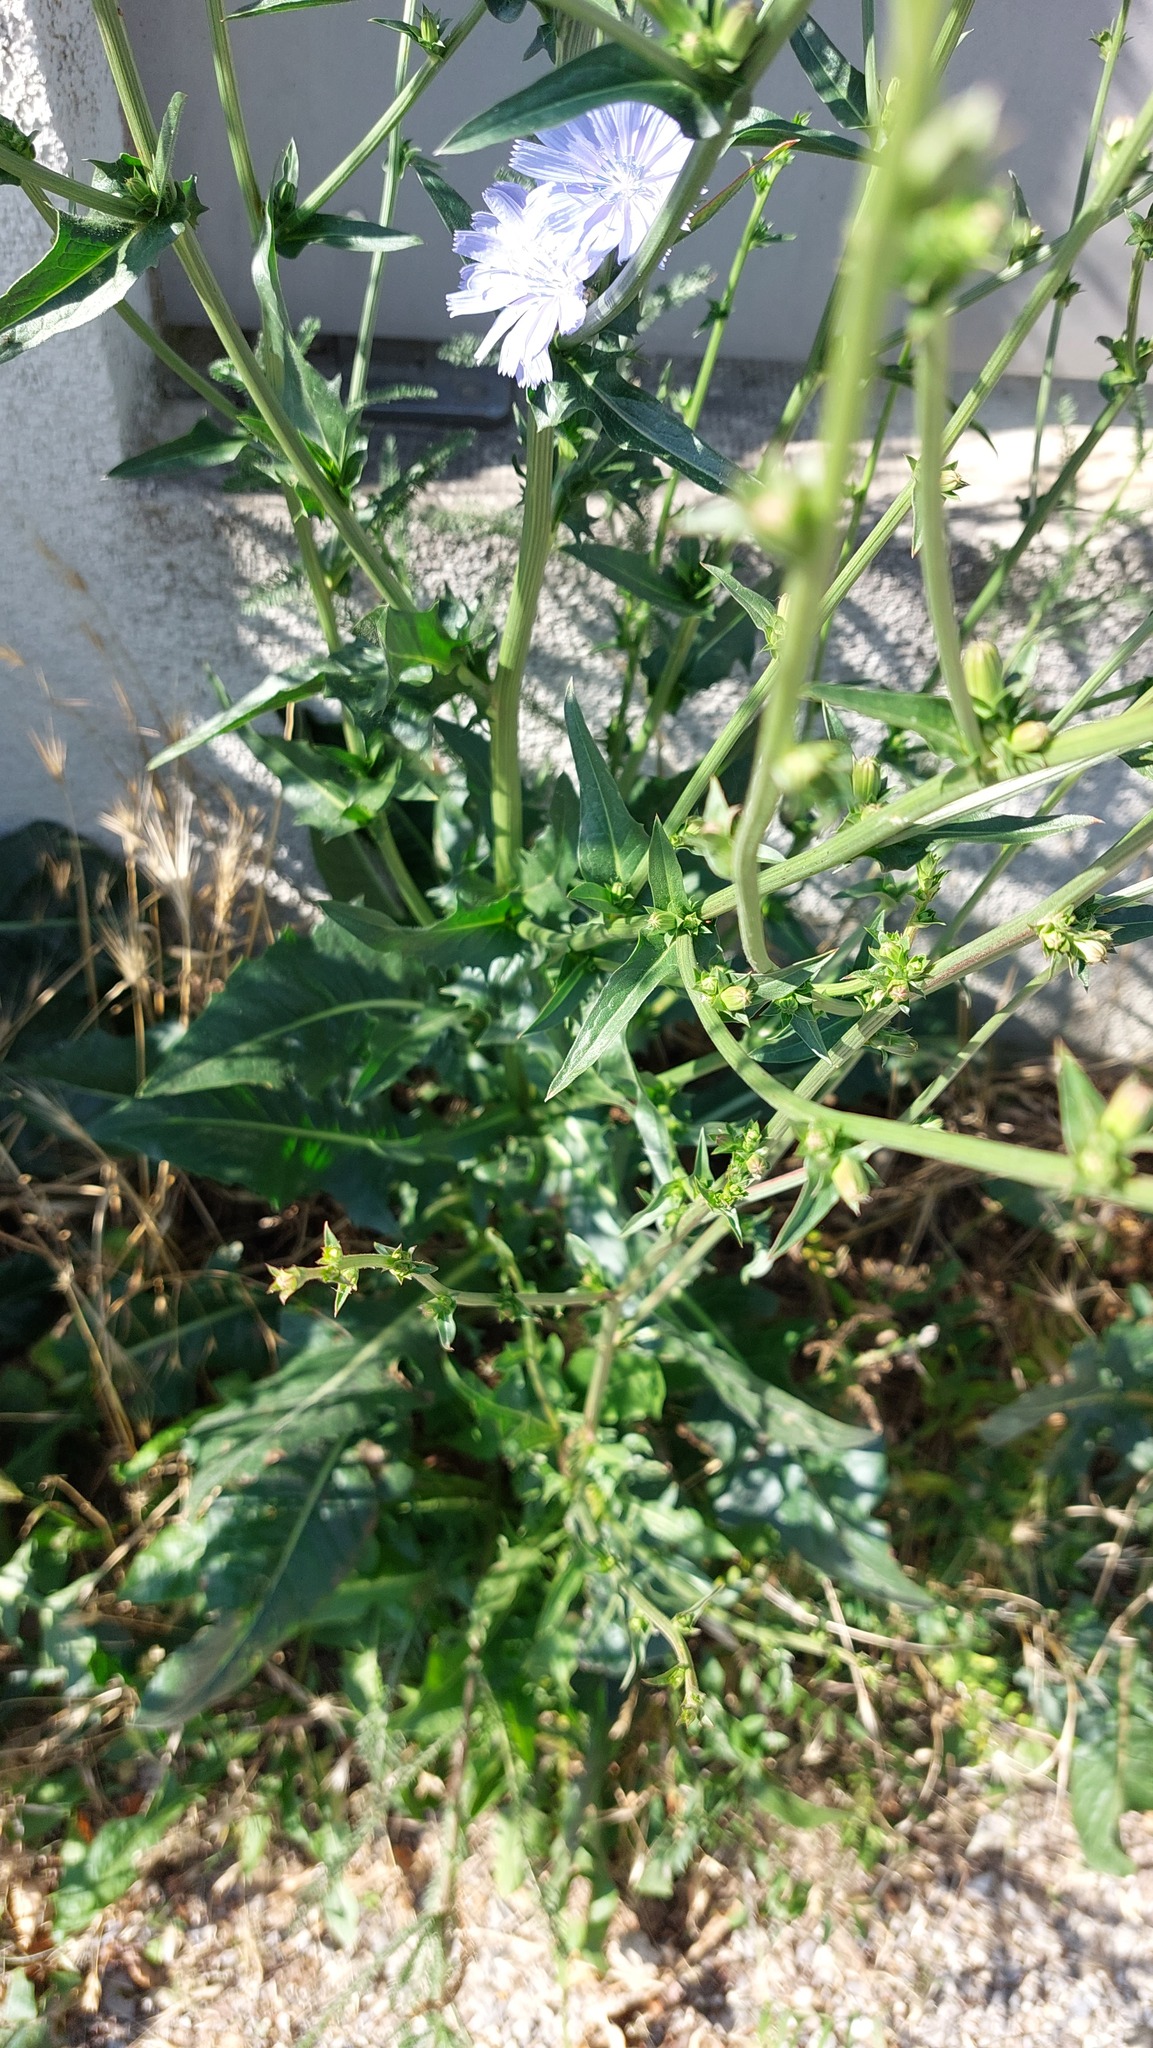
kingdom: Plantae
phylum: Tracheophyta
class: Magnoliopsida
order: Asterales
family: Asteraceae
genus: Cichorium
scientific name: Cichorium intybus
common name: Chicory
